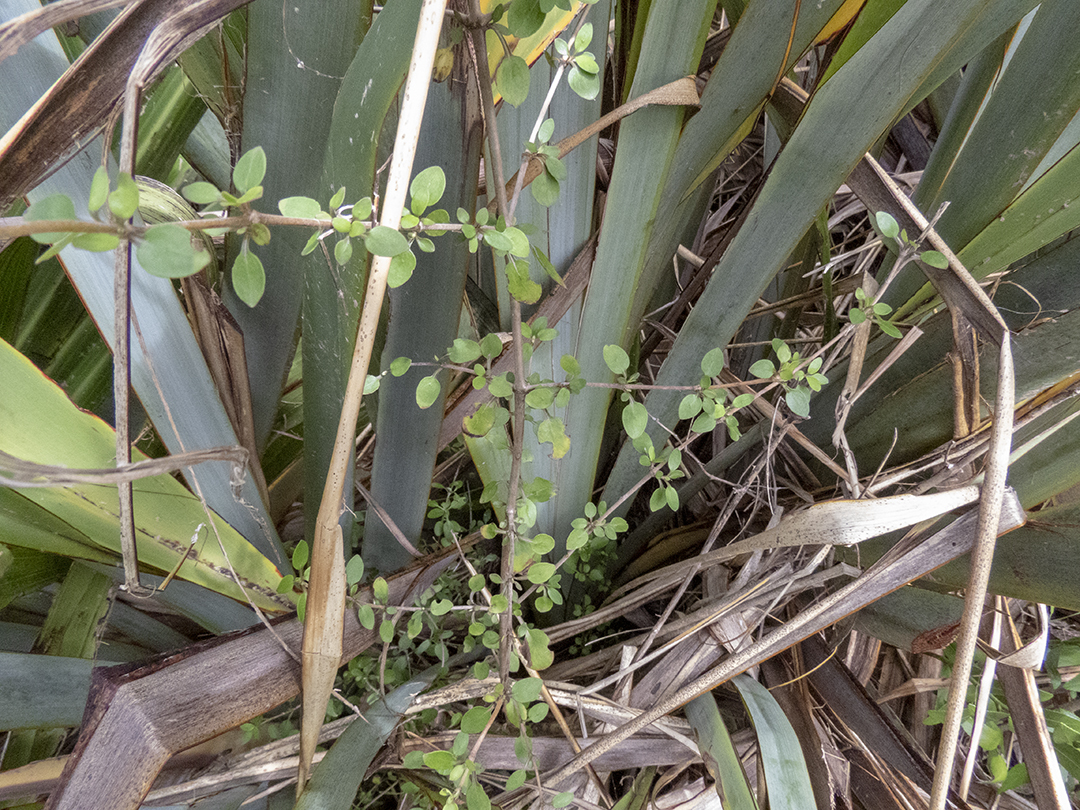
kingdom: Plantae
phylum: Tracheophyta
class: Magnoliopsida
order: Gentianales
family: Rubiaceae
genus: Coprosma
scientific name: Coprosma rhamnoides
